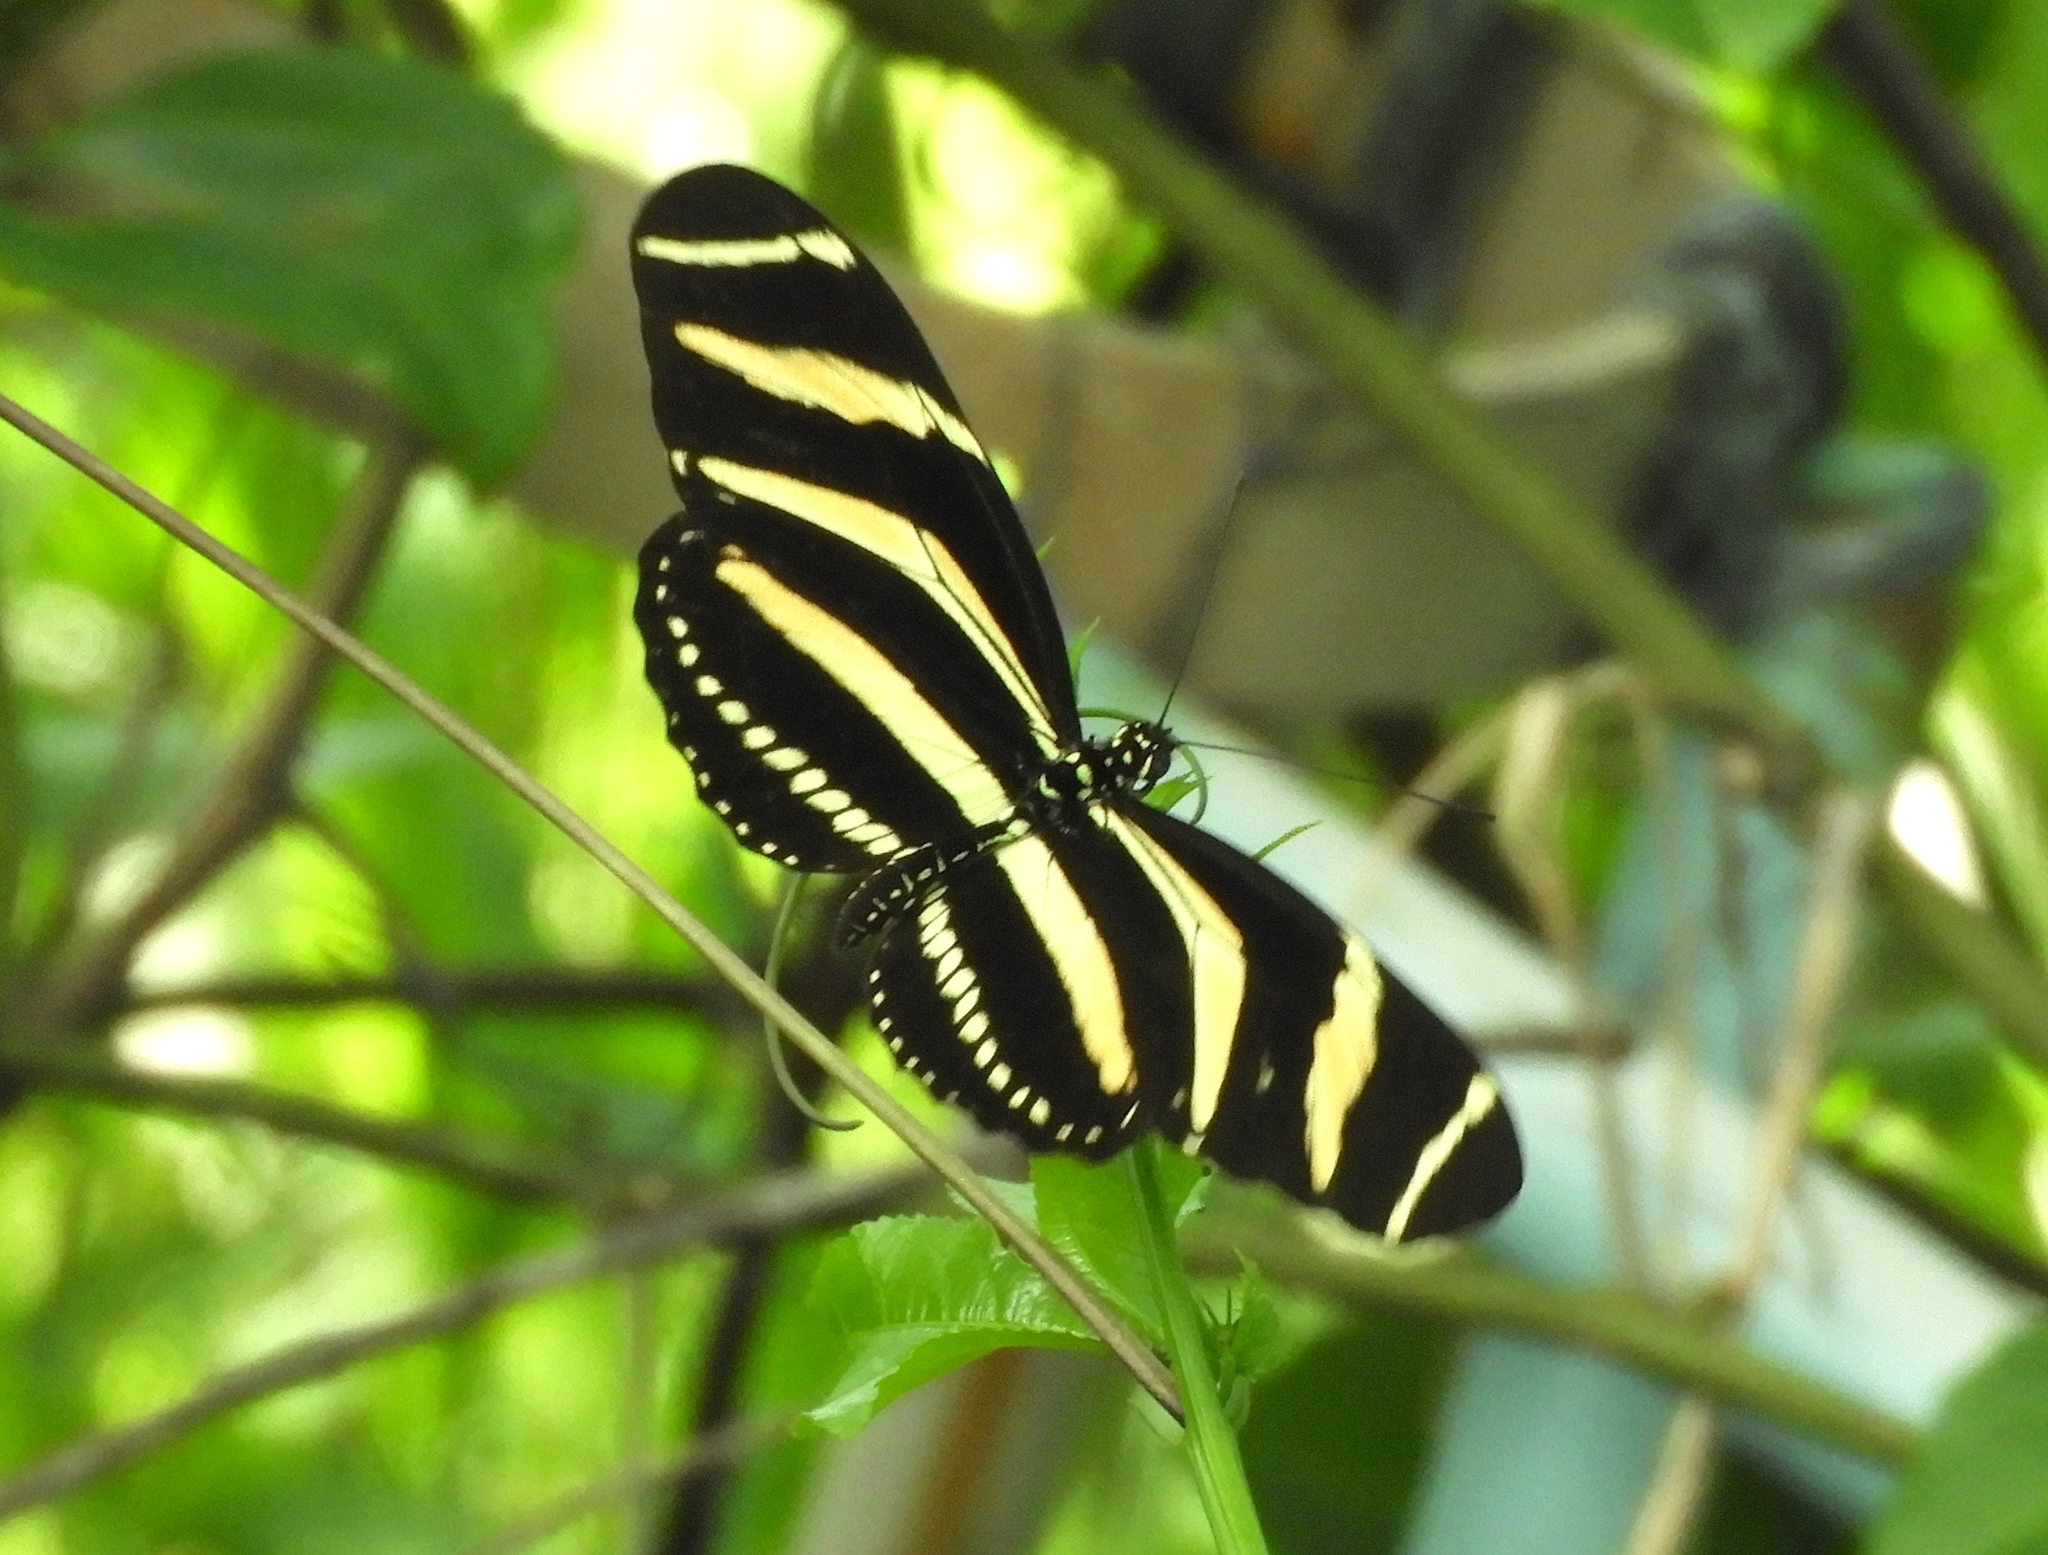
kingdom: Animalia
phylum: Arthropoda
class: Insecta
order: Lepidoptera
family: Nymphalidae
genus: Heliconius
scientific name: Heliconius charithonia
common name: Zebra long wing
